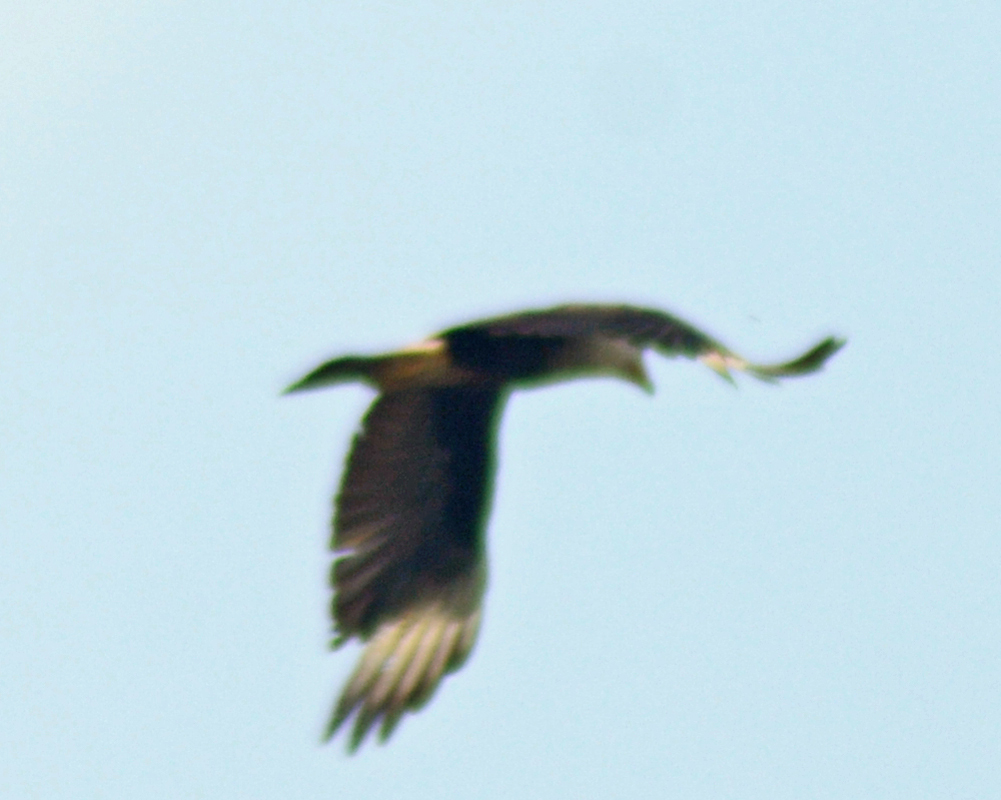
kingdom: Animalia
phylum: Chordata
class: Aves
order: Falconiformes
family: Falconidae
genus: Caracara
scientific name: Caracara plancus
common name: Southern caracara
